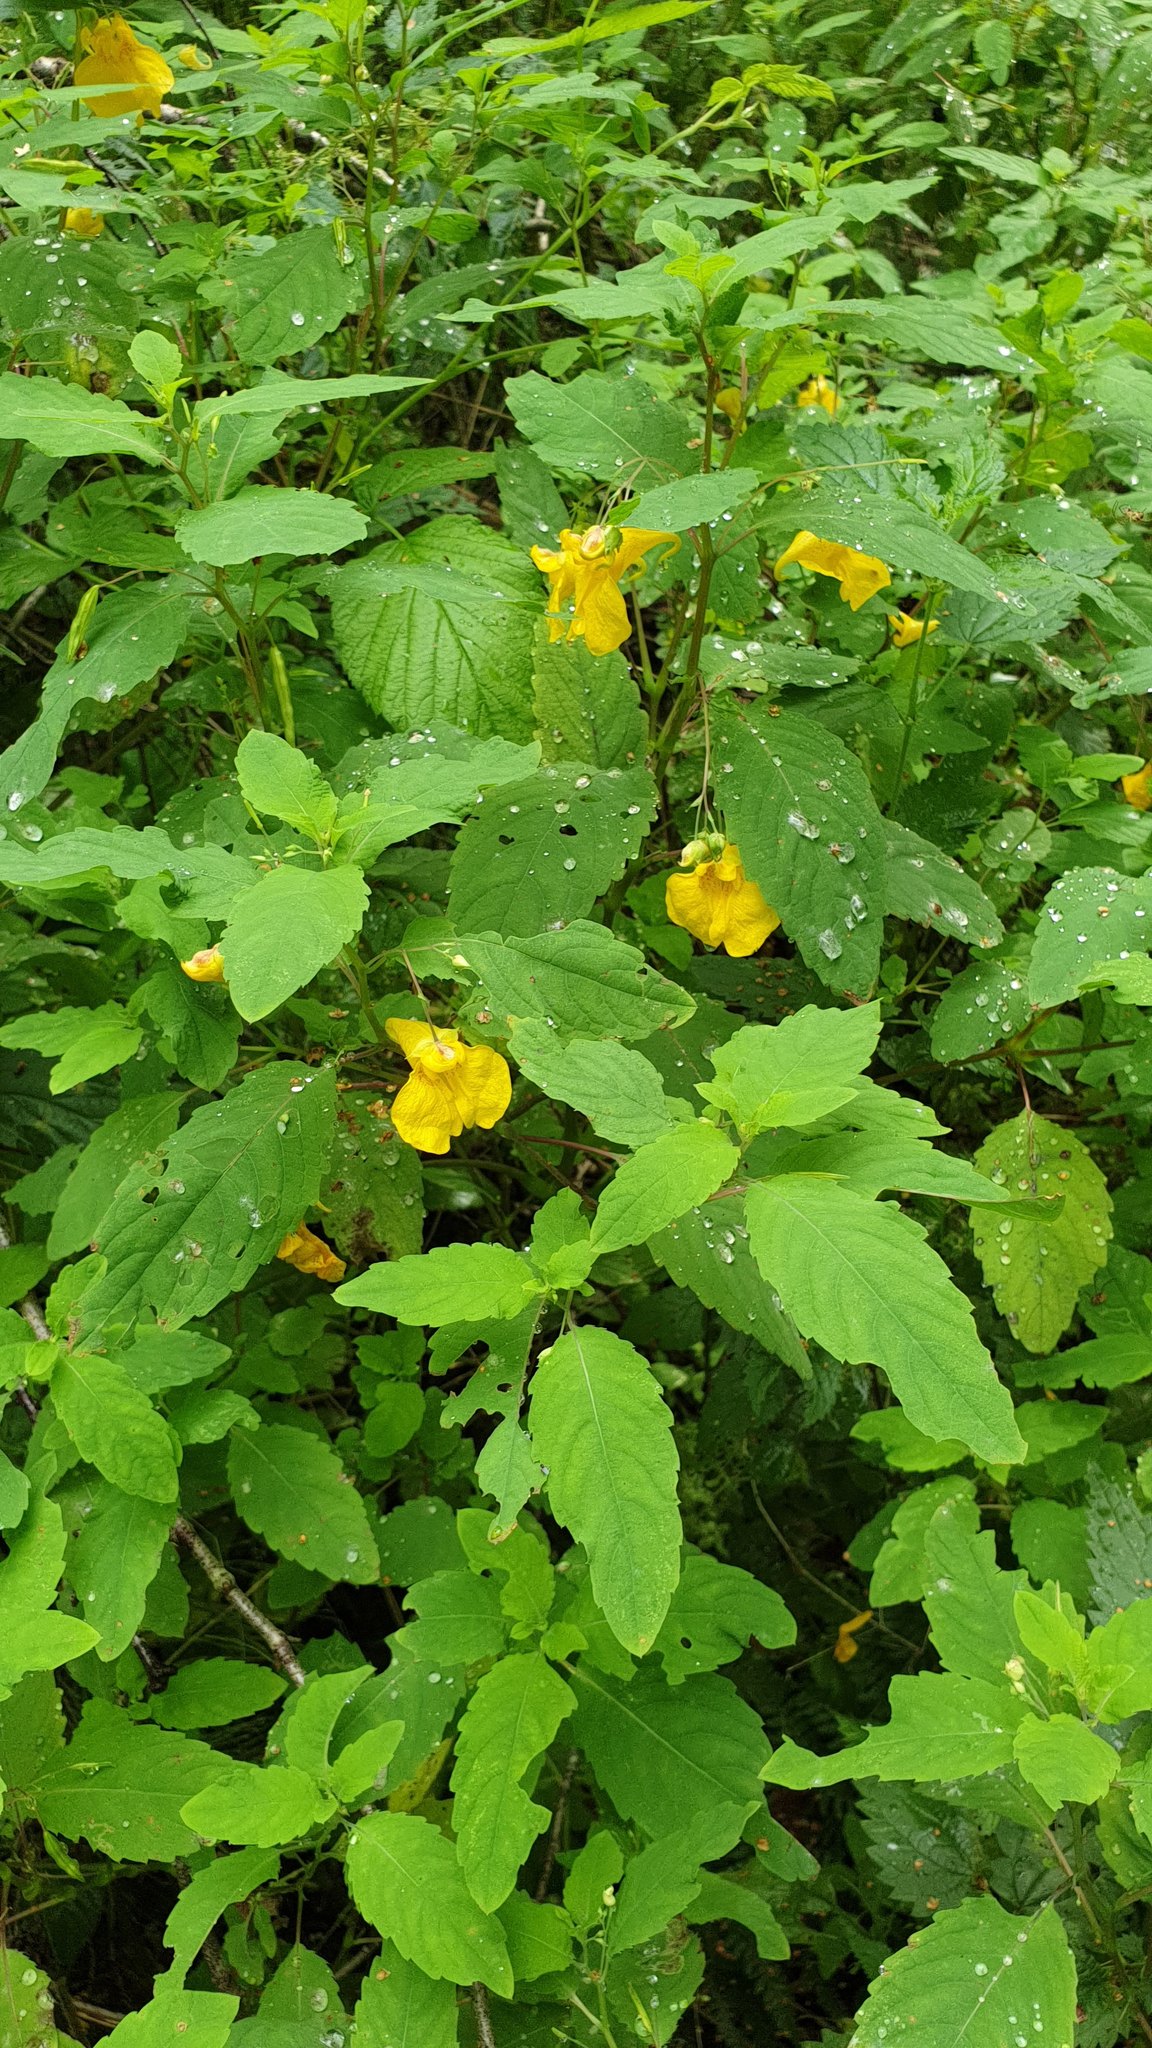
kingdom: Plantae
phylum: Tracheophyta
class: Magnoliopsida
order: Ericales
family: Balsaminaceae
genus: Impatiens
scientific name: Impatiens noli-tangere
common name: Touch-me-not balsam
